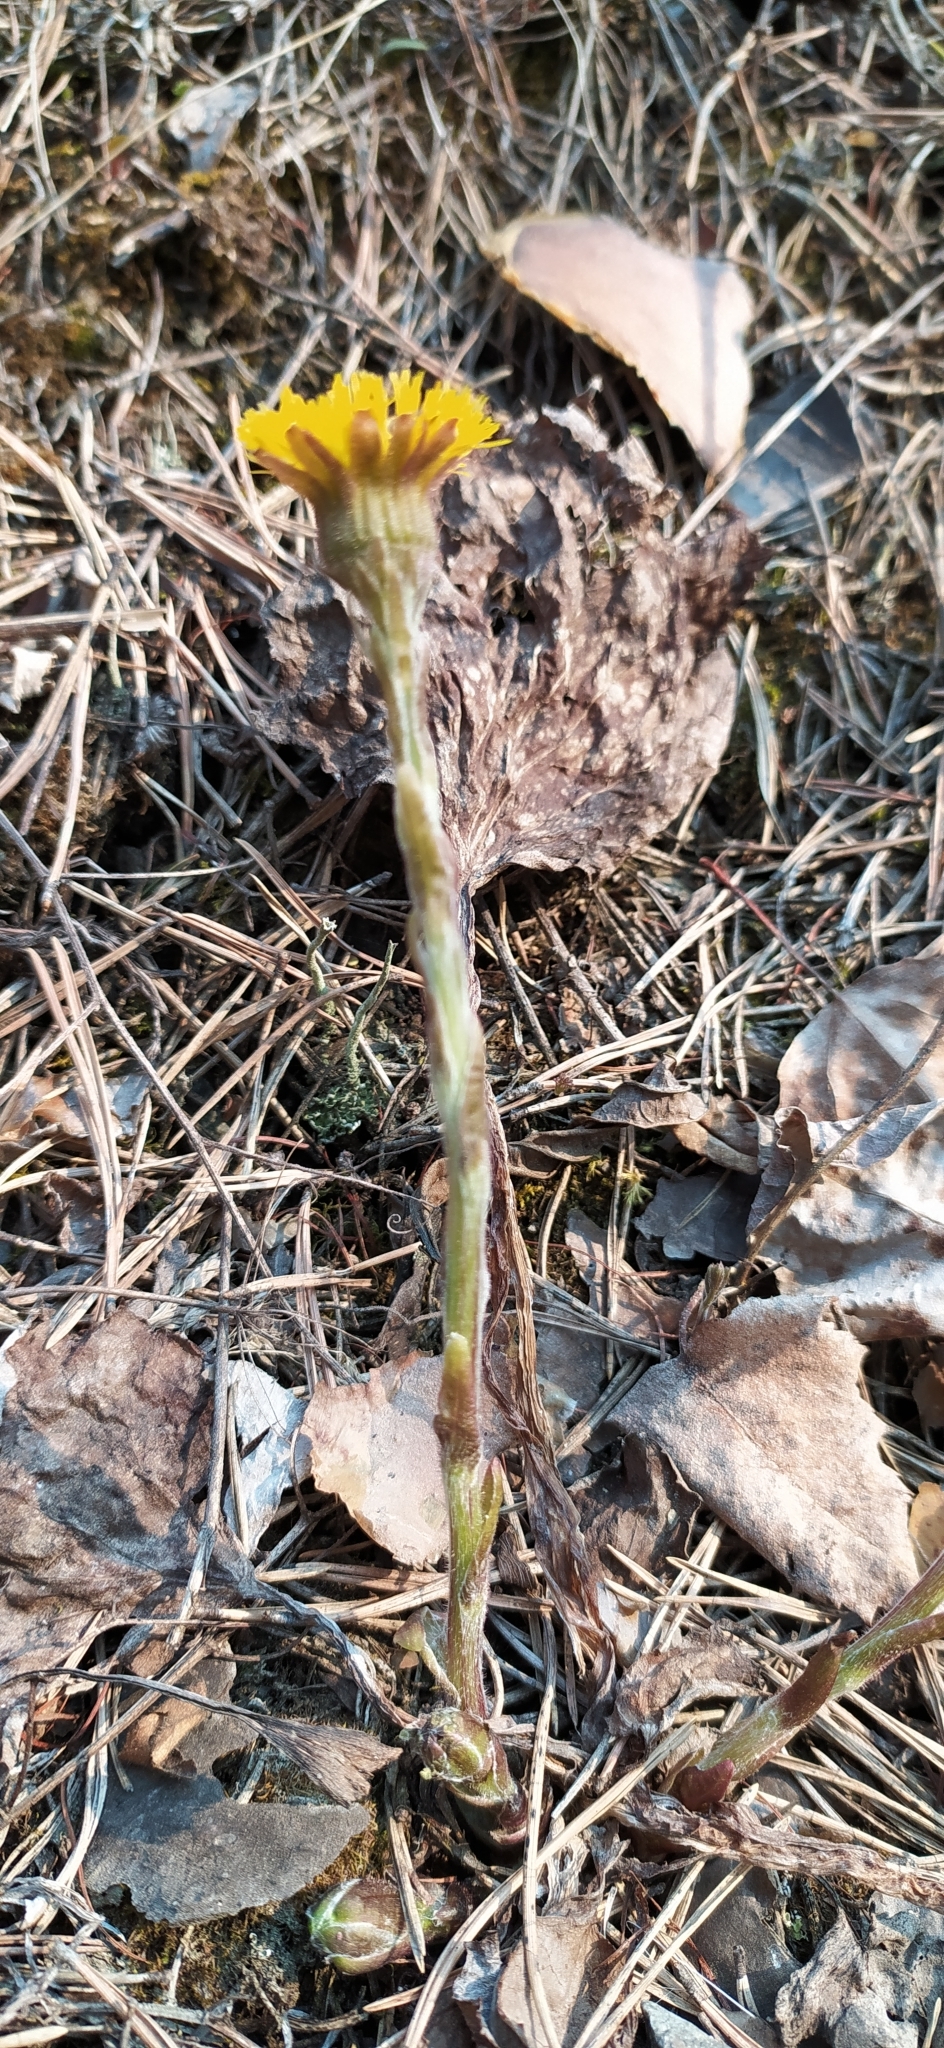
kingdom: Plantae
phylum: Tracheophyta
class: Magnoliopsida
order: Asterales
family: Asteraceae
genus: Tussilago
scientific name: Tussilago farfara
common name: Coltsfoot
